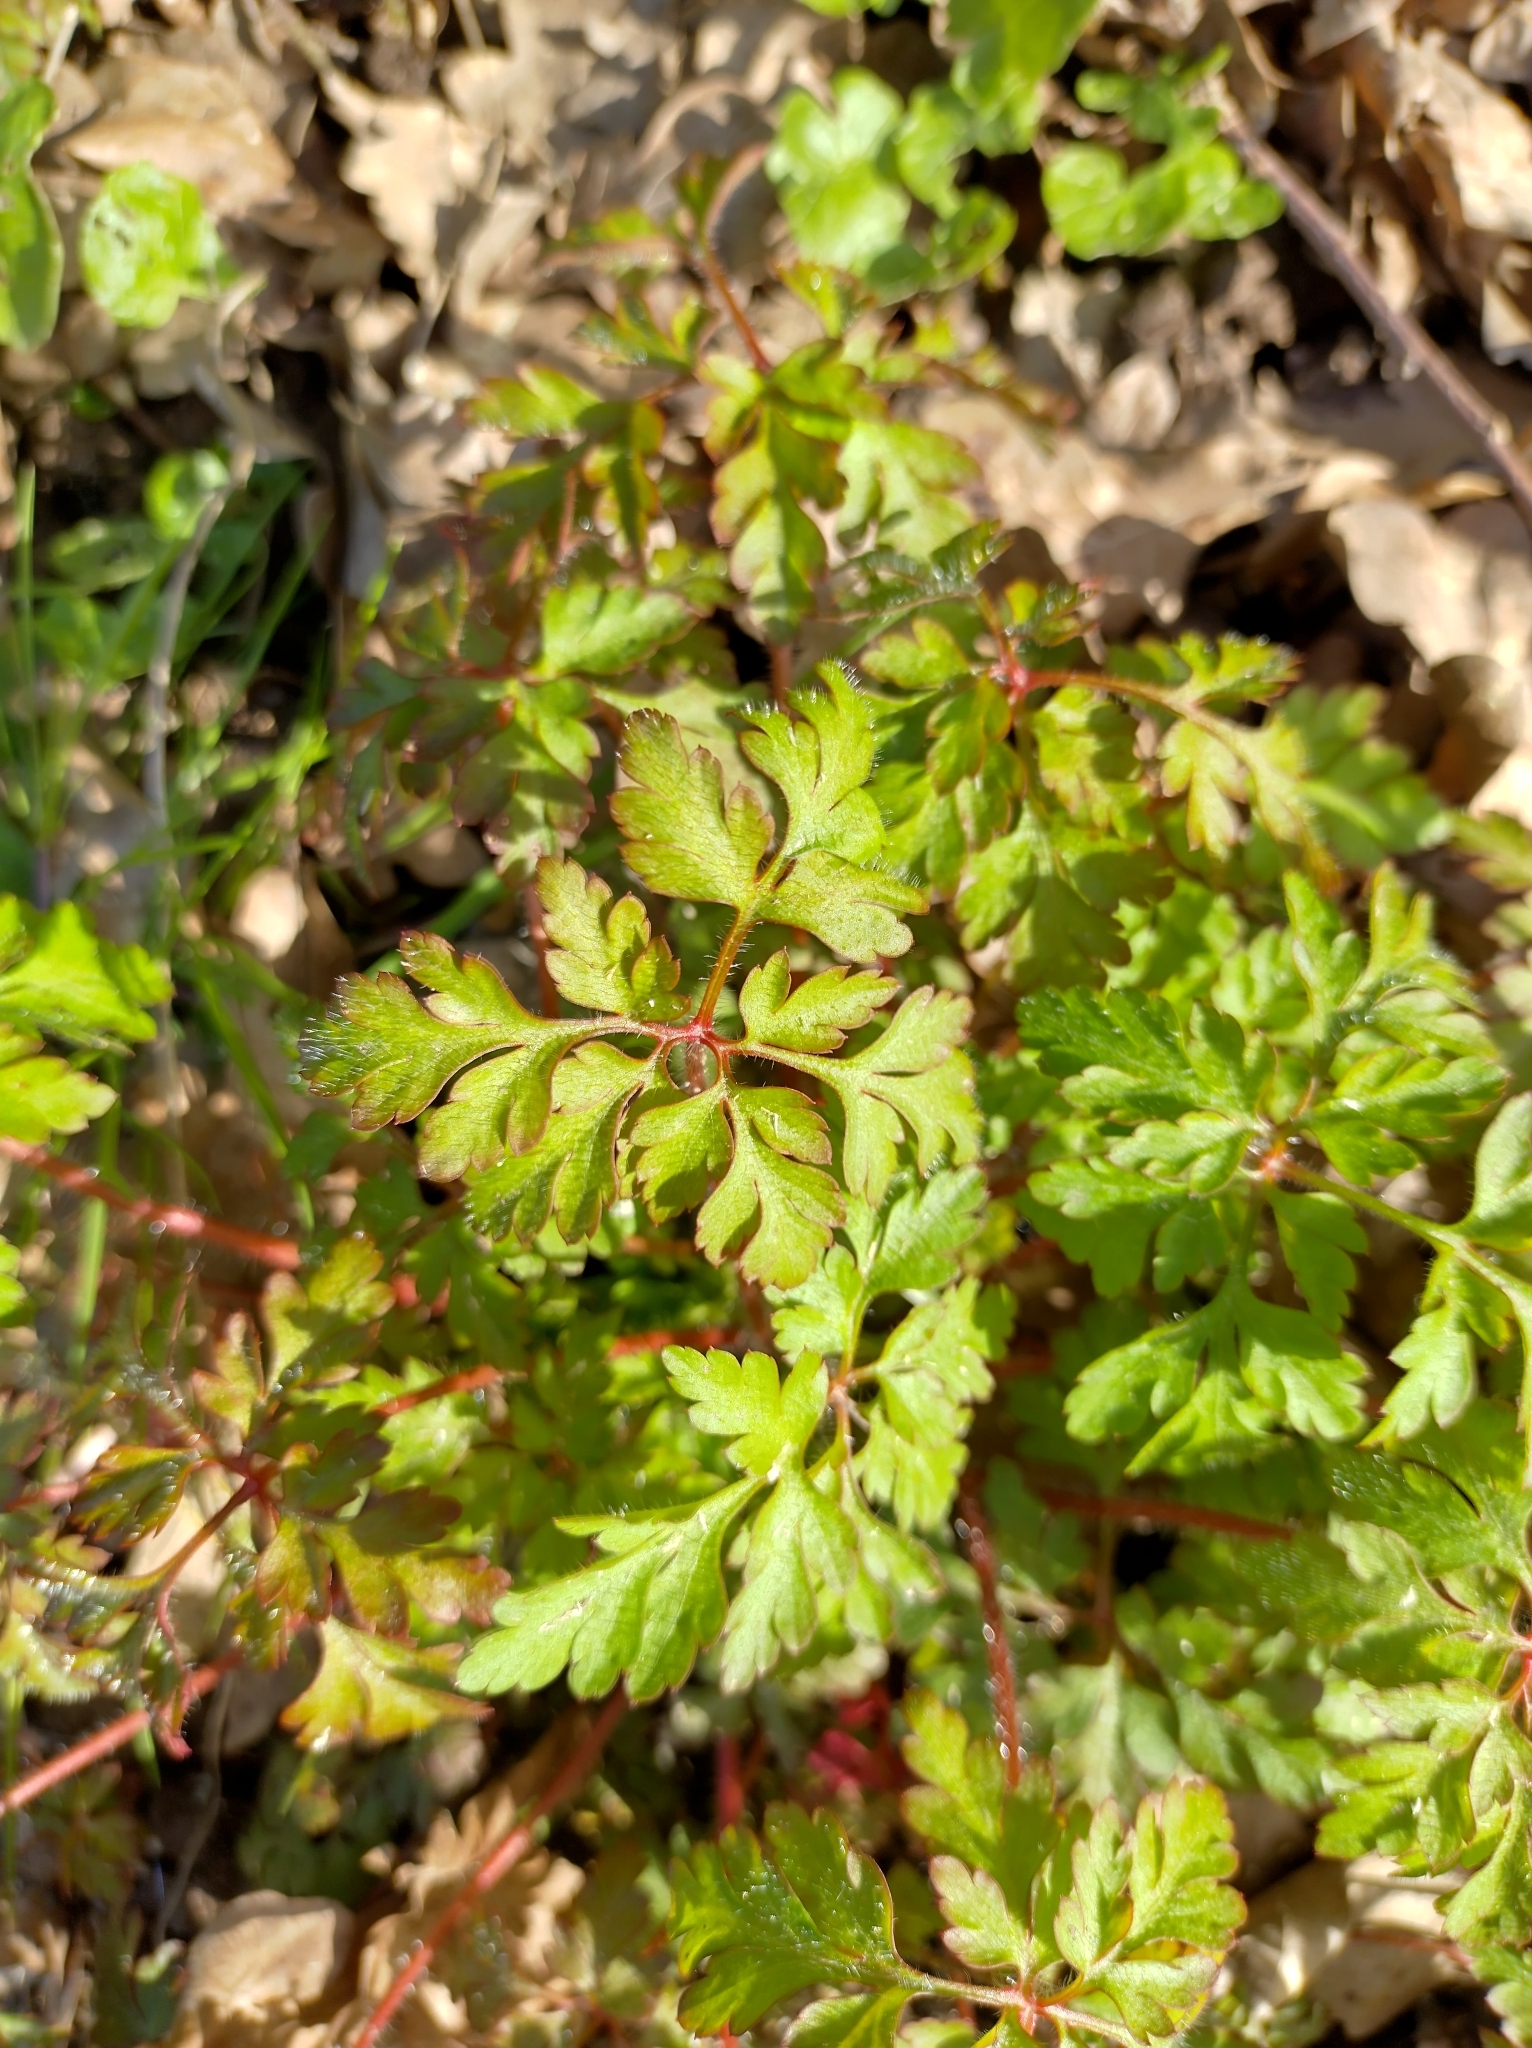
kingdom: Plantae
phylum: Tracheophyta
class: Magnoliopsida
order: Geraniales
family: Geraniaceae
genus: Geranium
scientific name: Geranium robertianum
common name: Herb-robert
